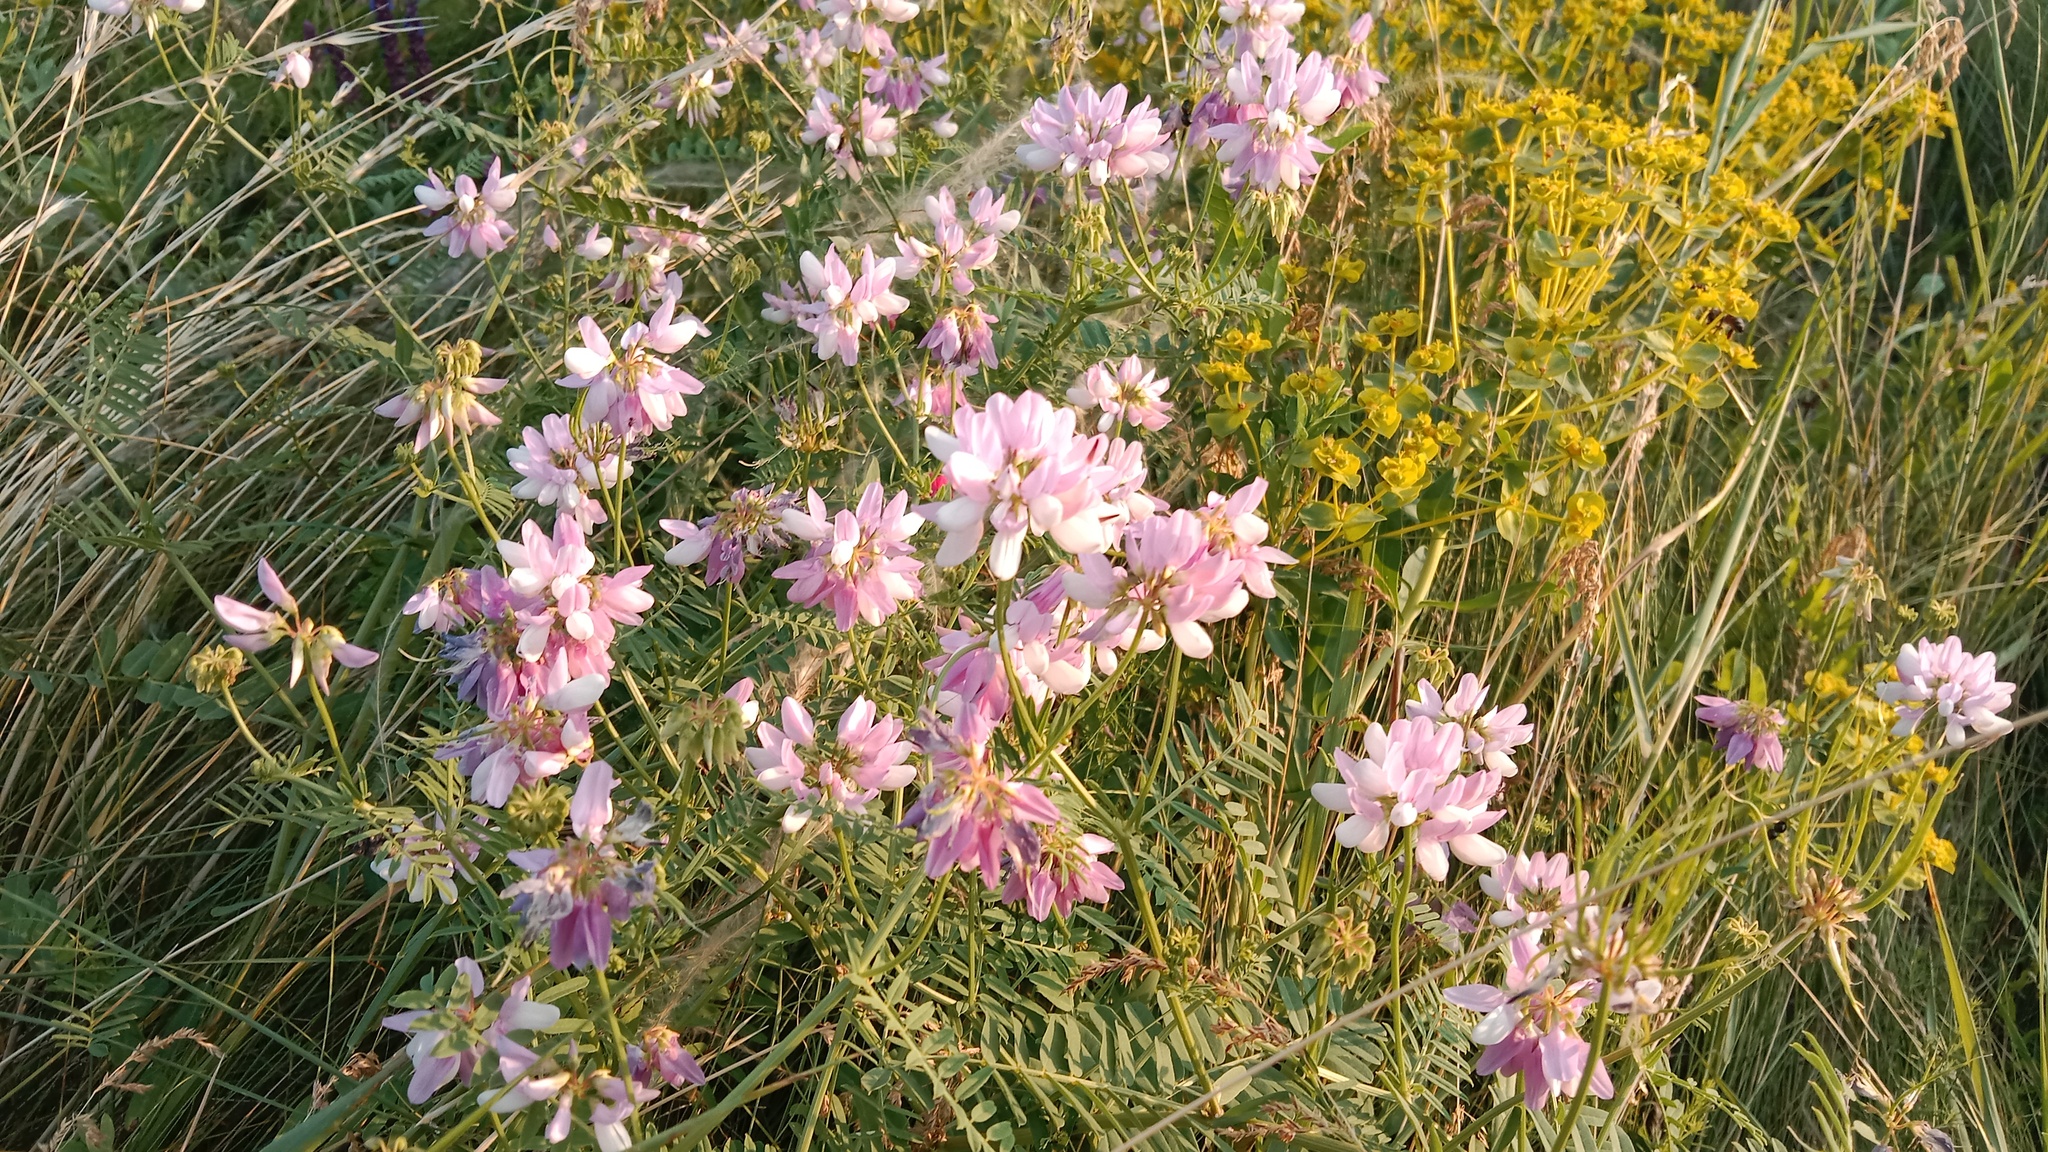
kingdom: Plantae
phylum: Tracheophyta
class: Magnoliopsida
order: Fabales
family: Fabaceae
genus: Coronilla
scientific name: Coronilla varia
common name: Crownvetch
